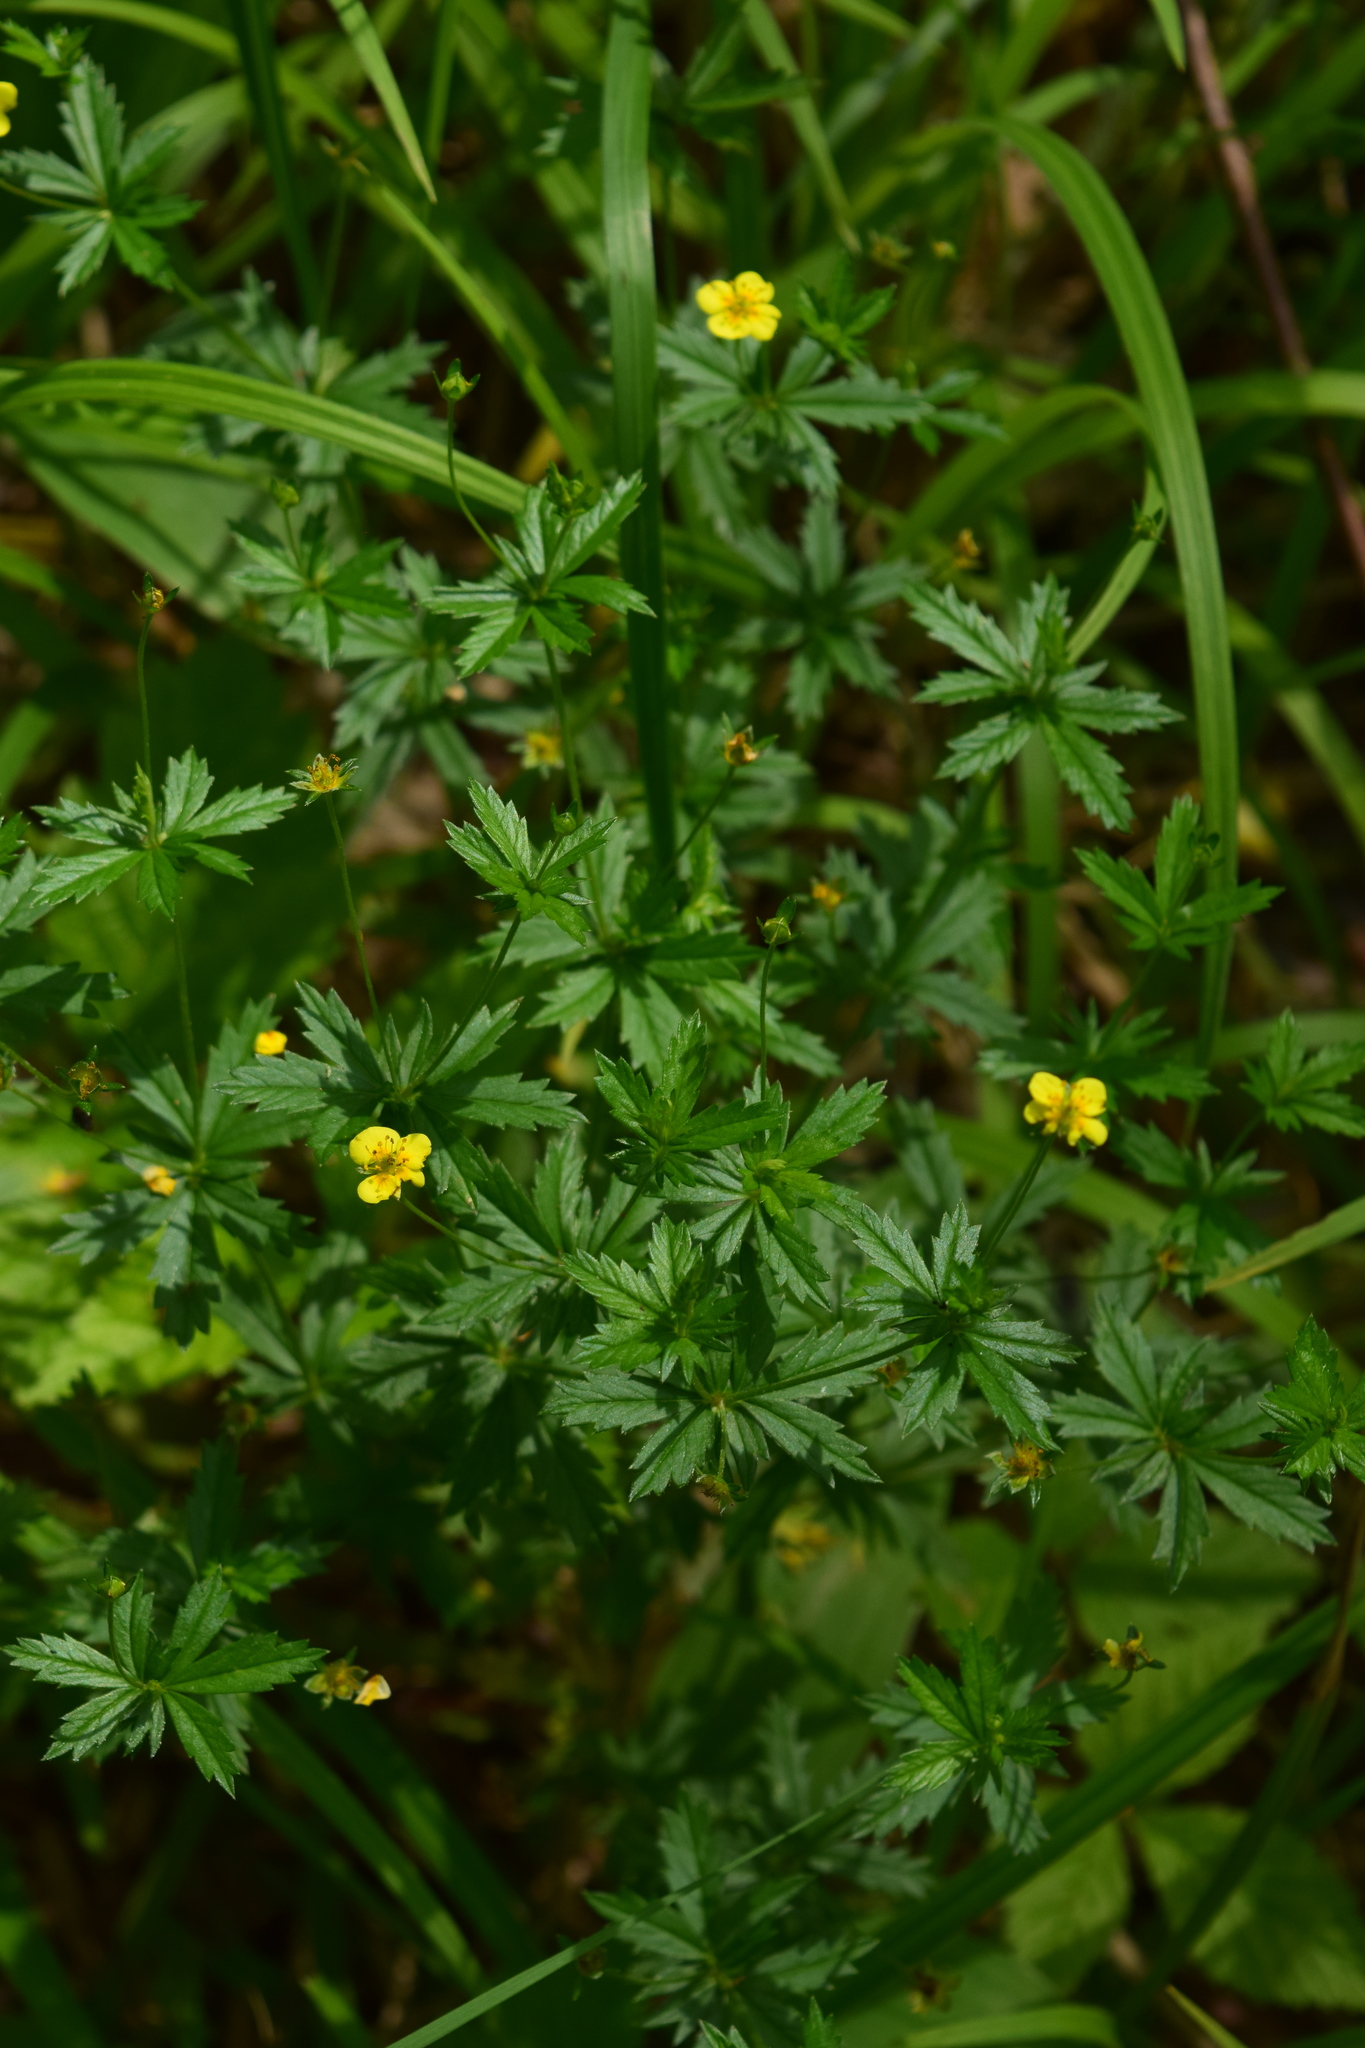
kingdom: Plantae
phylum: Tracheophyta
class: Magnoliopsida
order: Rosales
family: Rosaceae
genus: Potentilla
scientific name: Potentilla erecta
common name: Tormentil
